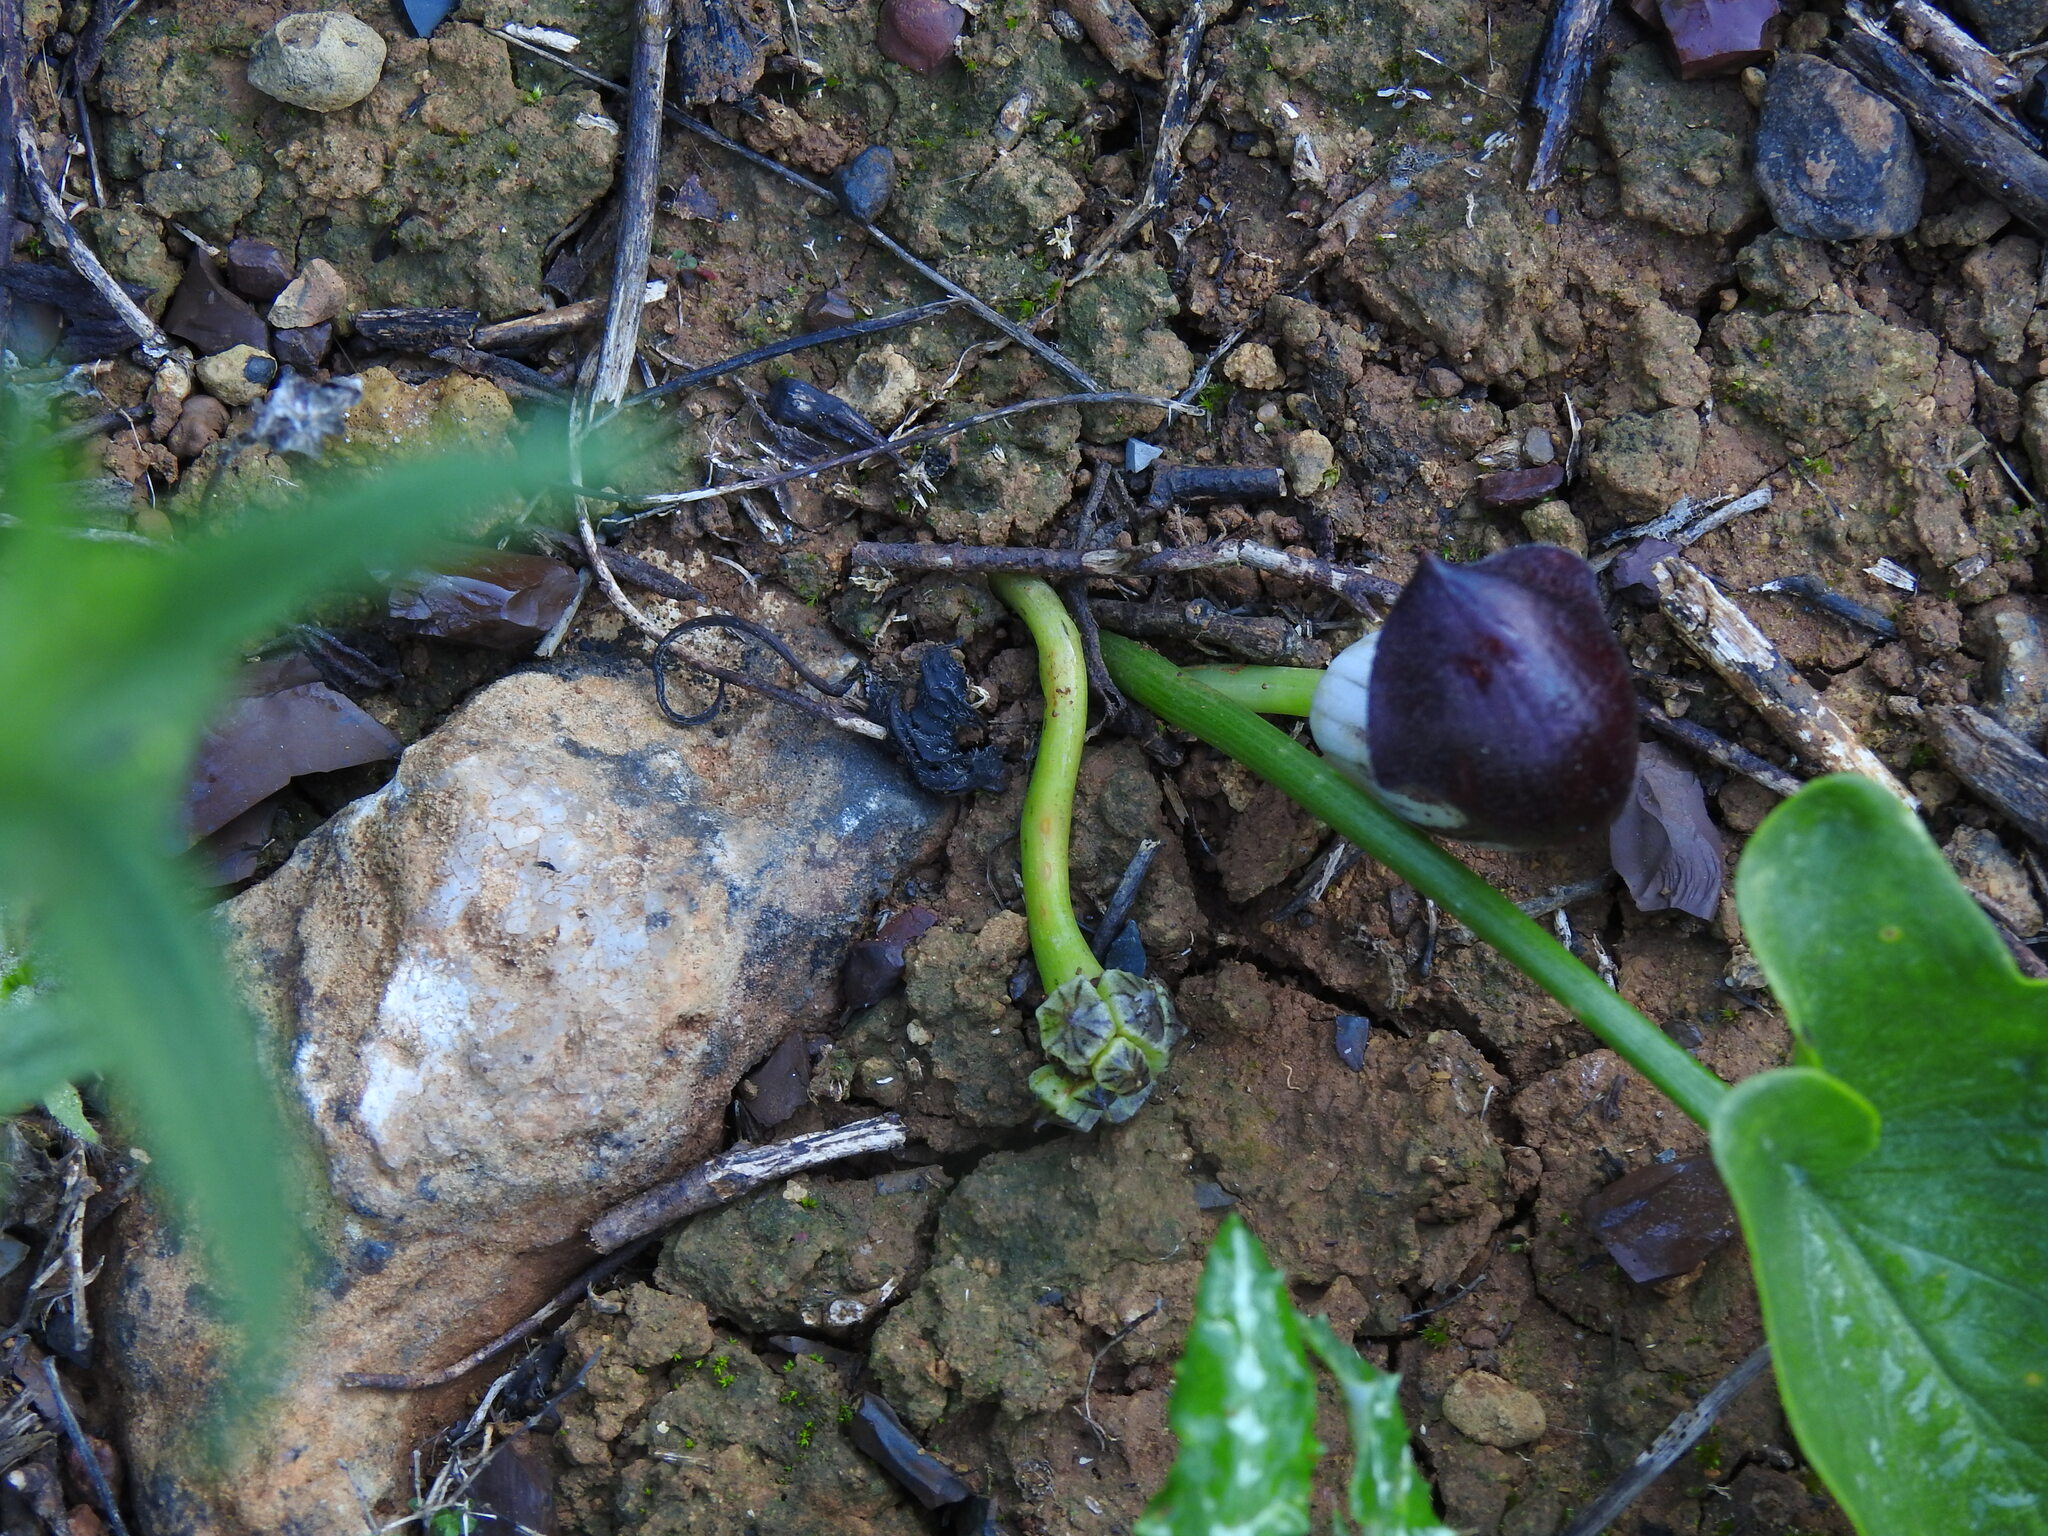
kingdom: Plantae
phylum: Tracheophyta
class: Liliopsida
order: Alismatales
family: Araceae
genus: Arisarum
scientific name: Arisarum simorrhinum
